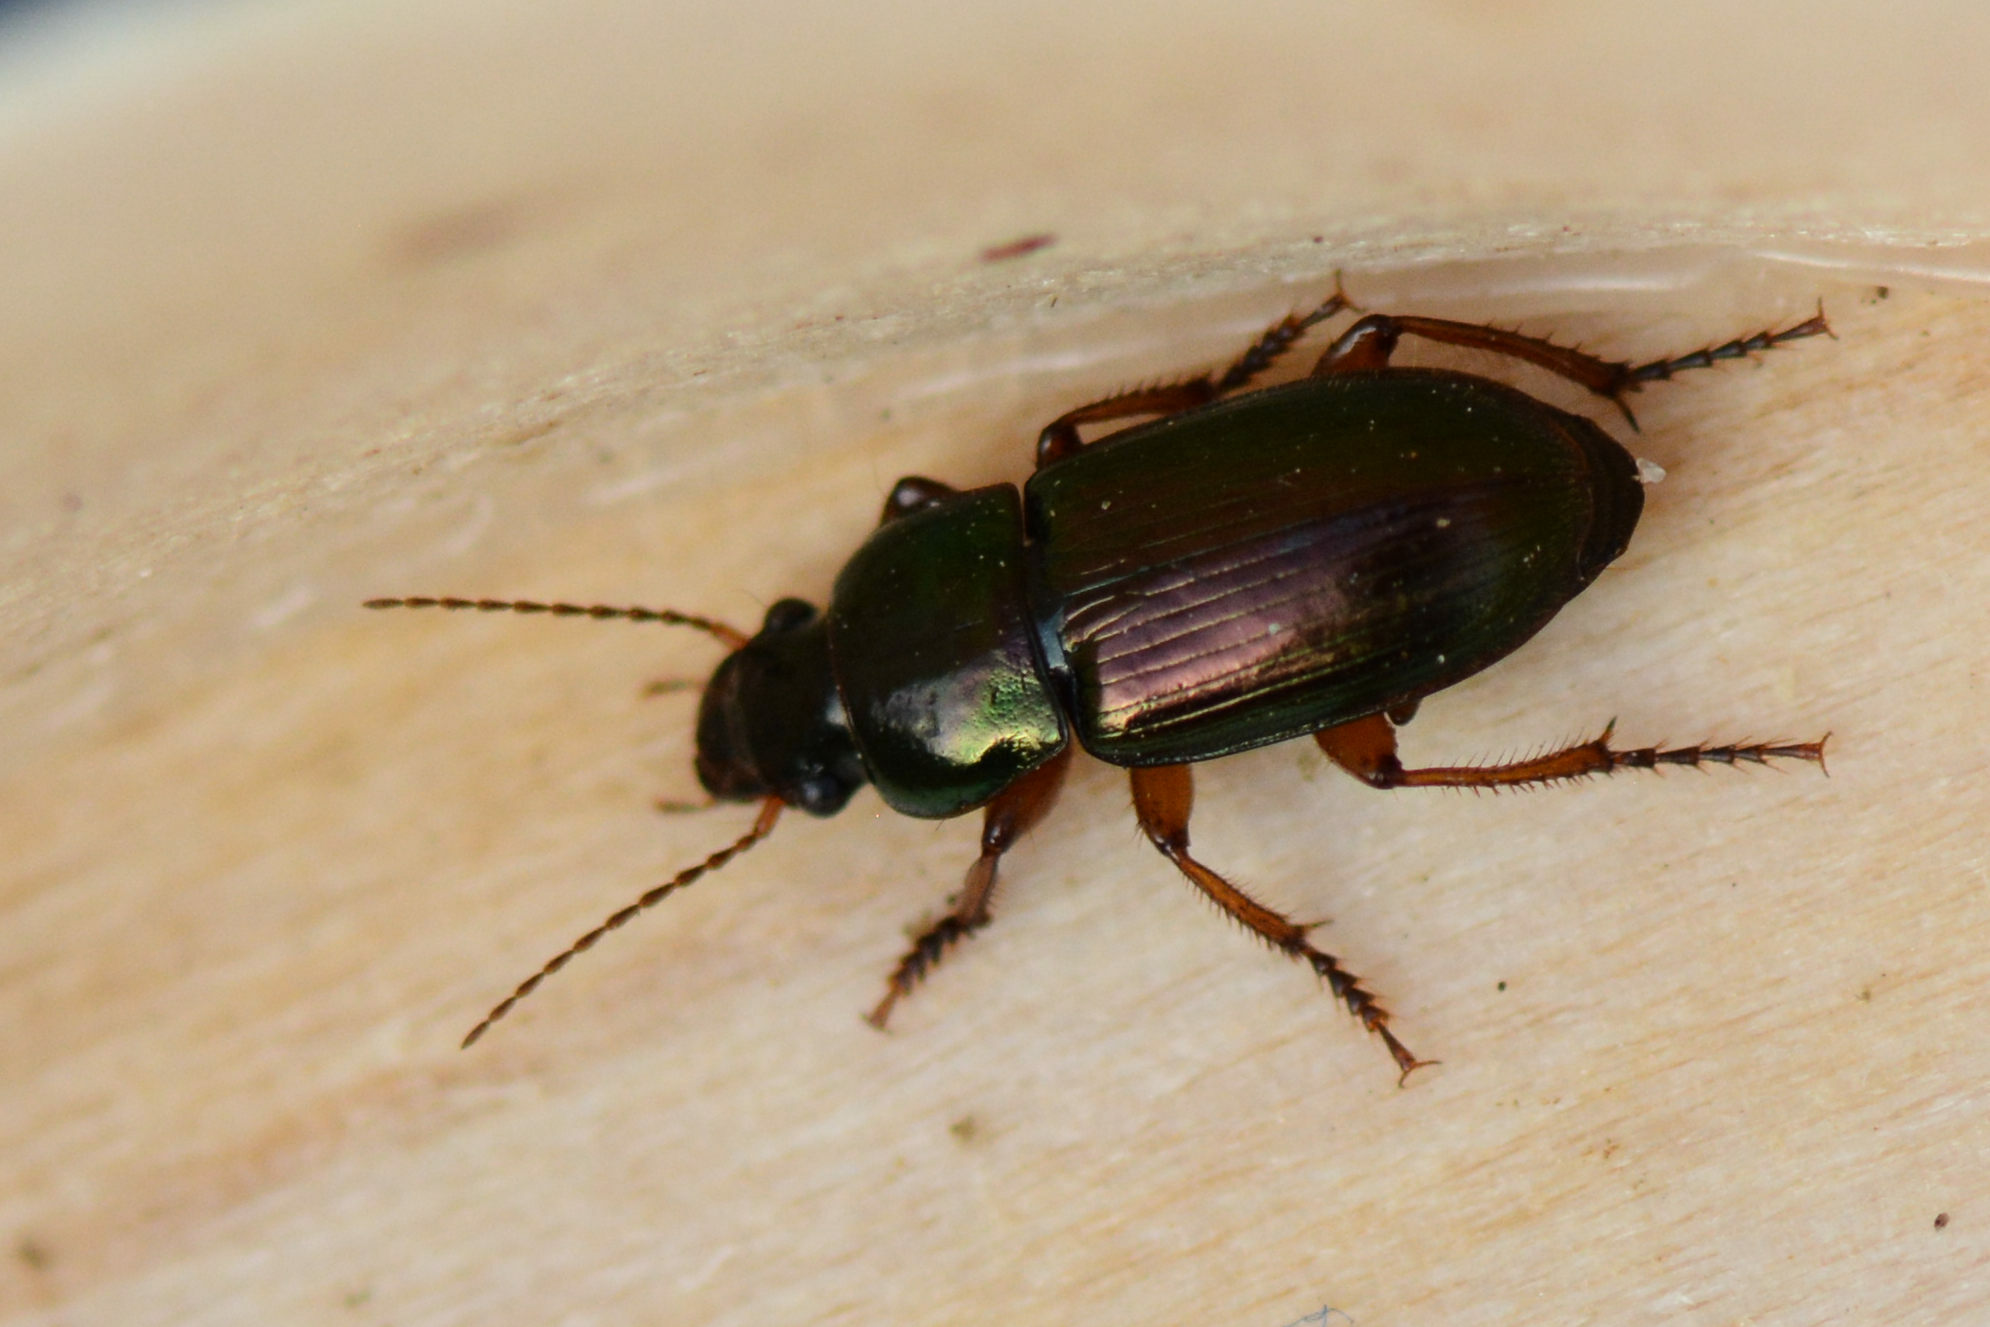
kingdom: Animalia
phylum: Arthropoda
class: Insecta
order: Coleoptera
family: Carabidae
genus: Harpalus
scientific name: Harpalus affinis
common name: Polychrome harp ground beetle
